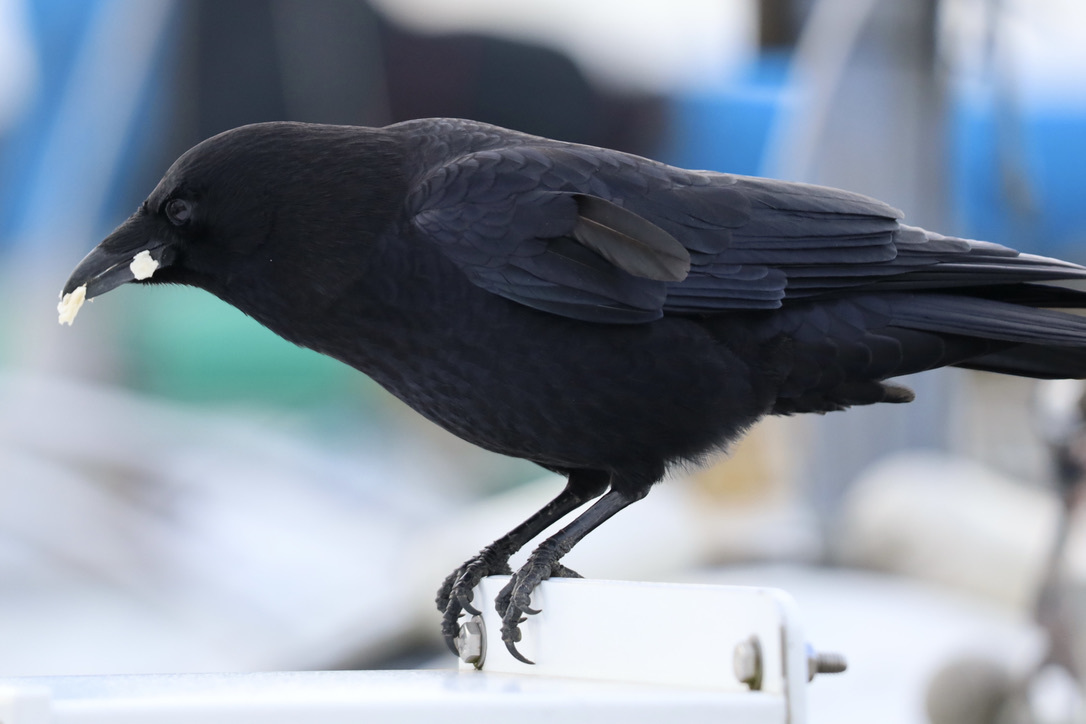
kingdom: Animalia
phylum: Chordata
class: Aves
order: Passeriformes
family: Corvidae
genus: Corvus
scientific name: Corvus brachyrhynchos
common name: American crow
